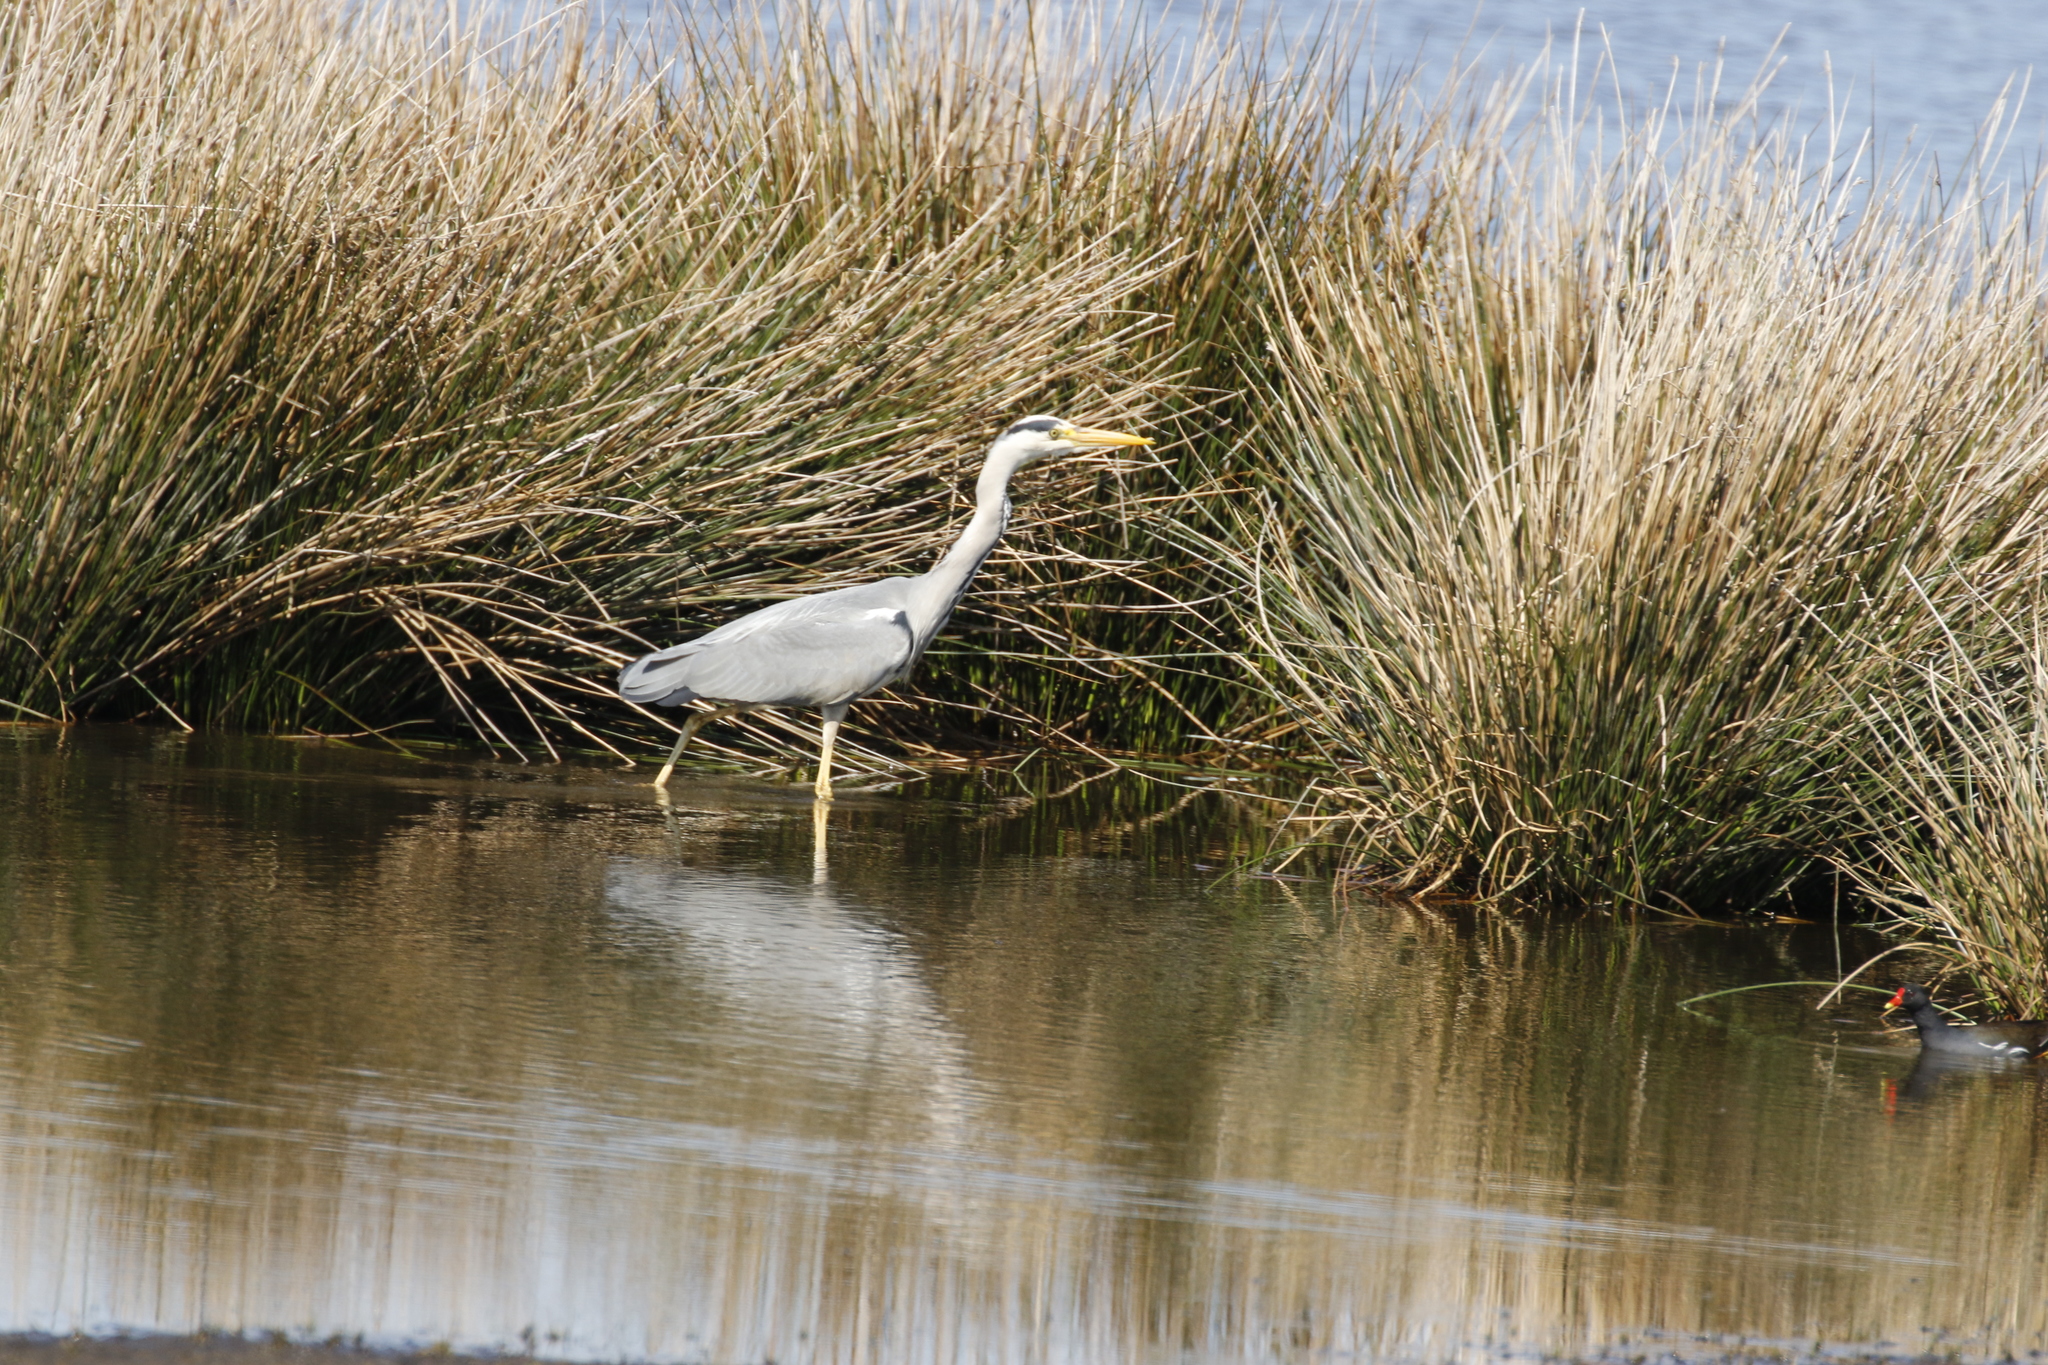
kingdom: Animalia
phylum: Chordata
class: Aves
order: Pelecaniformes
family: Ardeidae
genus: Ardea
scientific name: Ardea cinerea
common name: Grey heron
